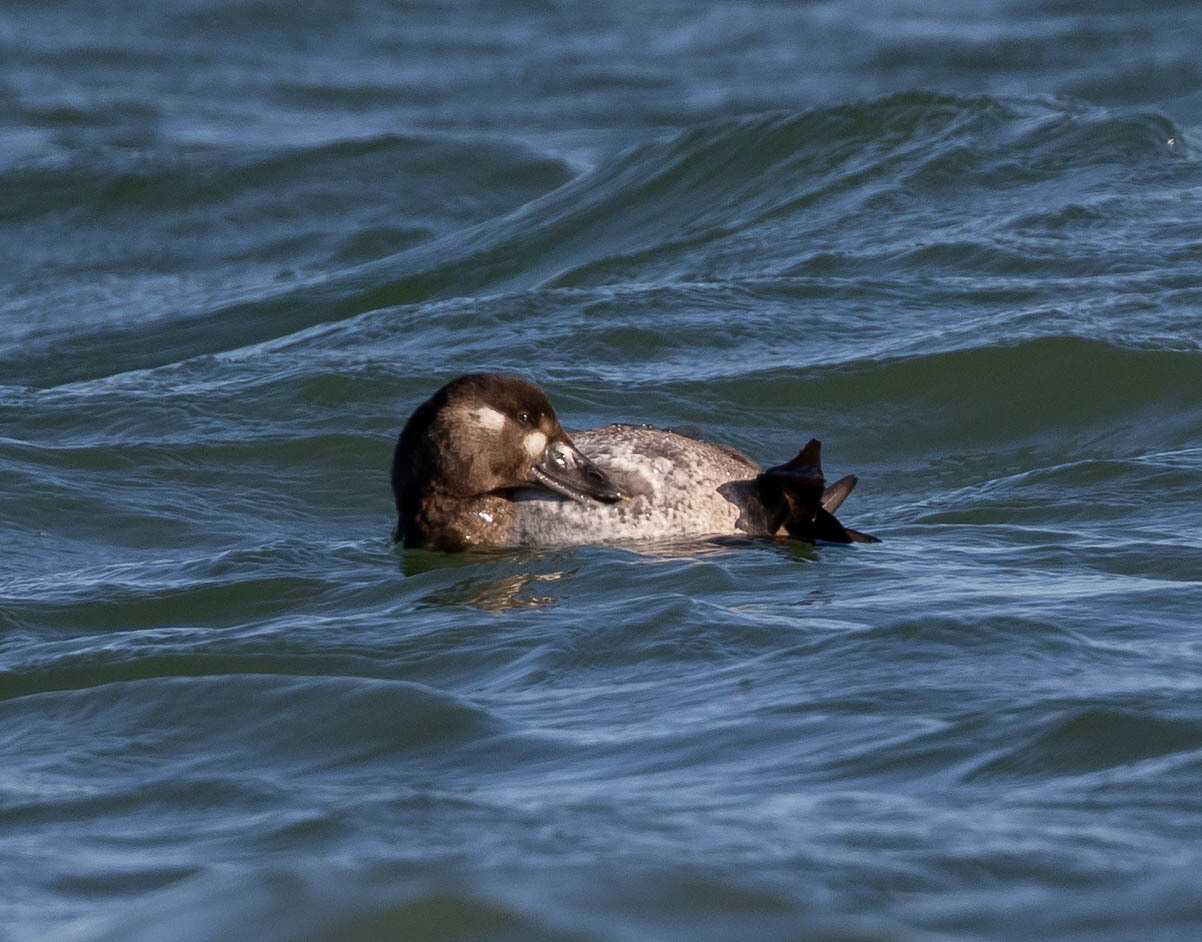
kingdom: Animalia
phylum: Chordata
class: Aves
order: Anseriformes
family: Anatidae
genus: Melanitta
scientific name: Melanitta perspicillata
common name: Surf scoter
